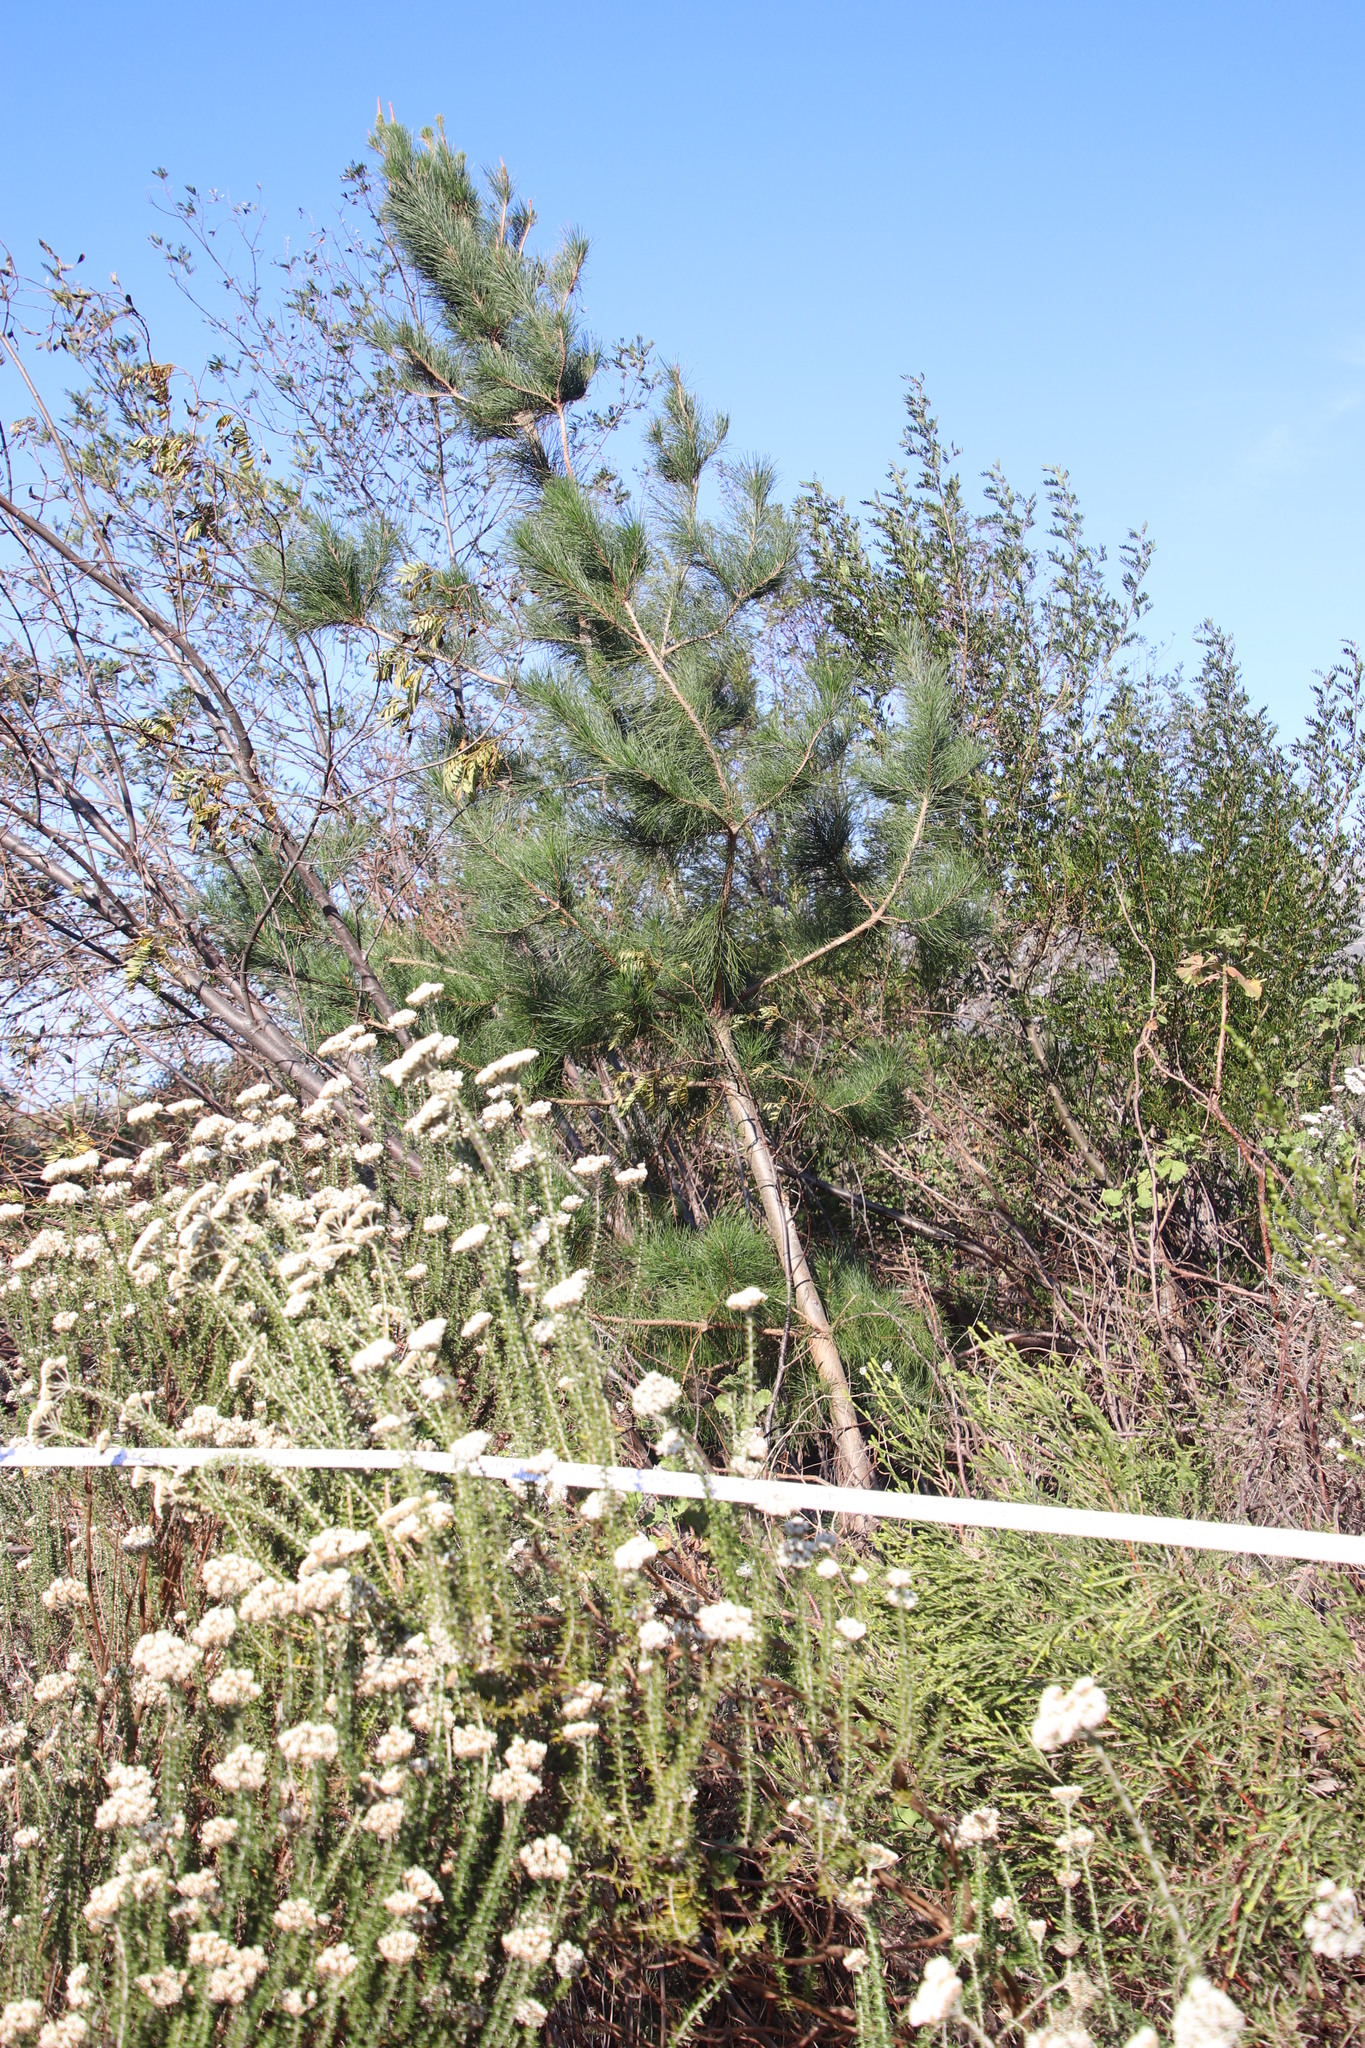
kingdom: Plantae
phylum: Tracheophyta
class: Pinopsida
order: Pinales
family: Pinaceae
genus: Pinus
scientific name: Pinus radiata
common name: Monterey pine
